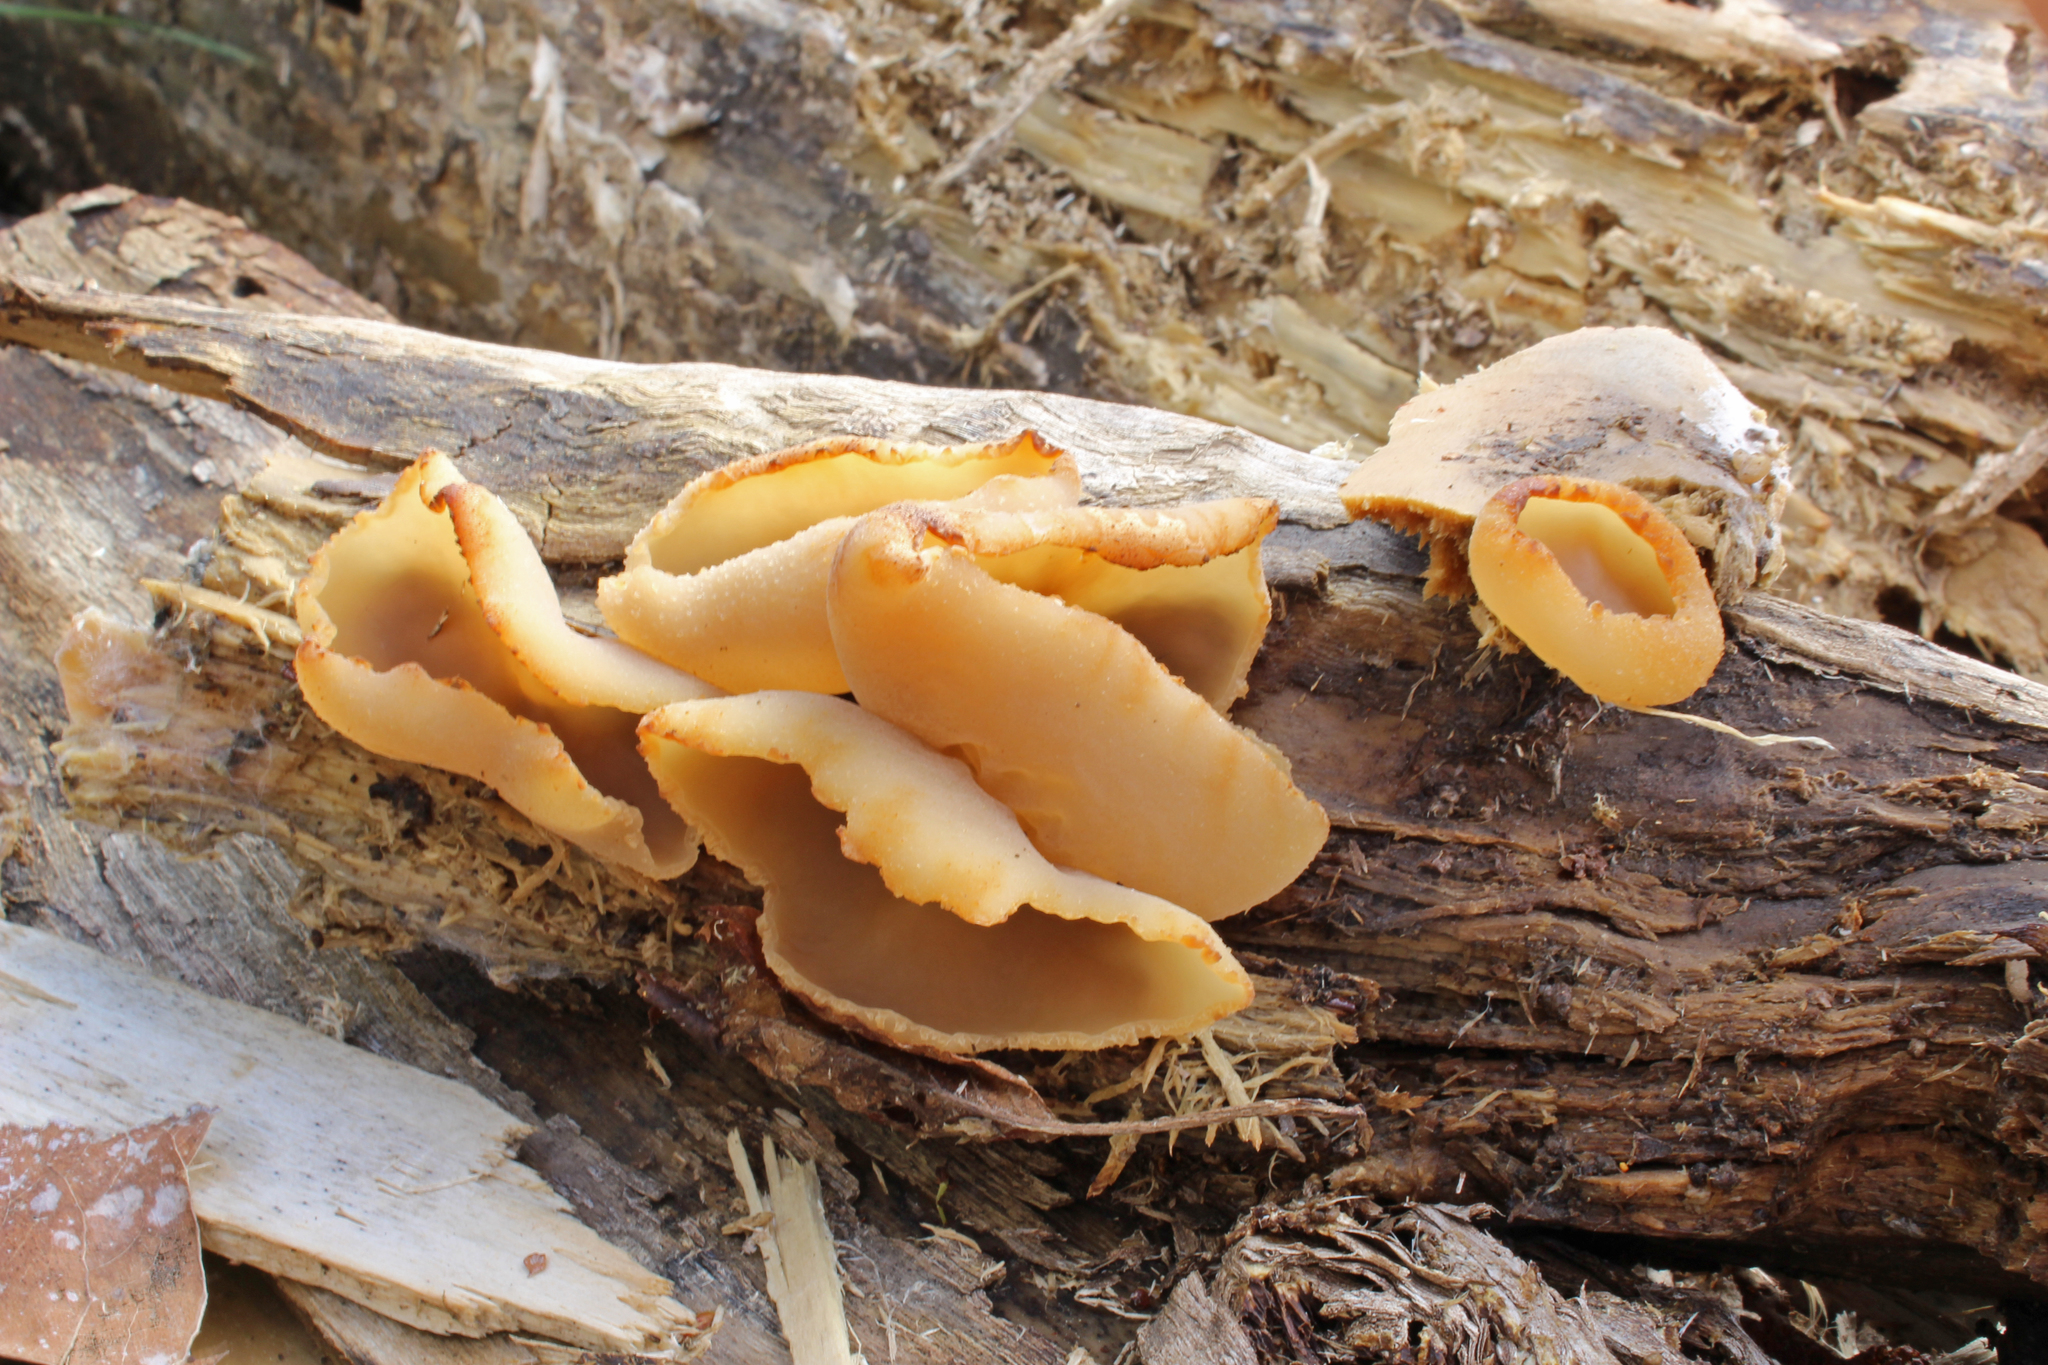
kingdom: Fungi
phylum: Ascomycota
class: Pezizomycetes
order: Pezizales
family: Pezizaceae
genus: Peziza
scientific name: Peziza varia
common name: Layered cup
